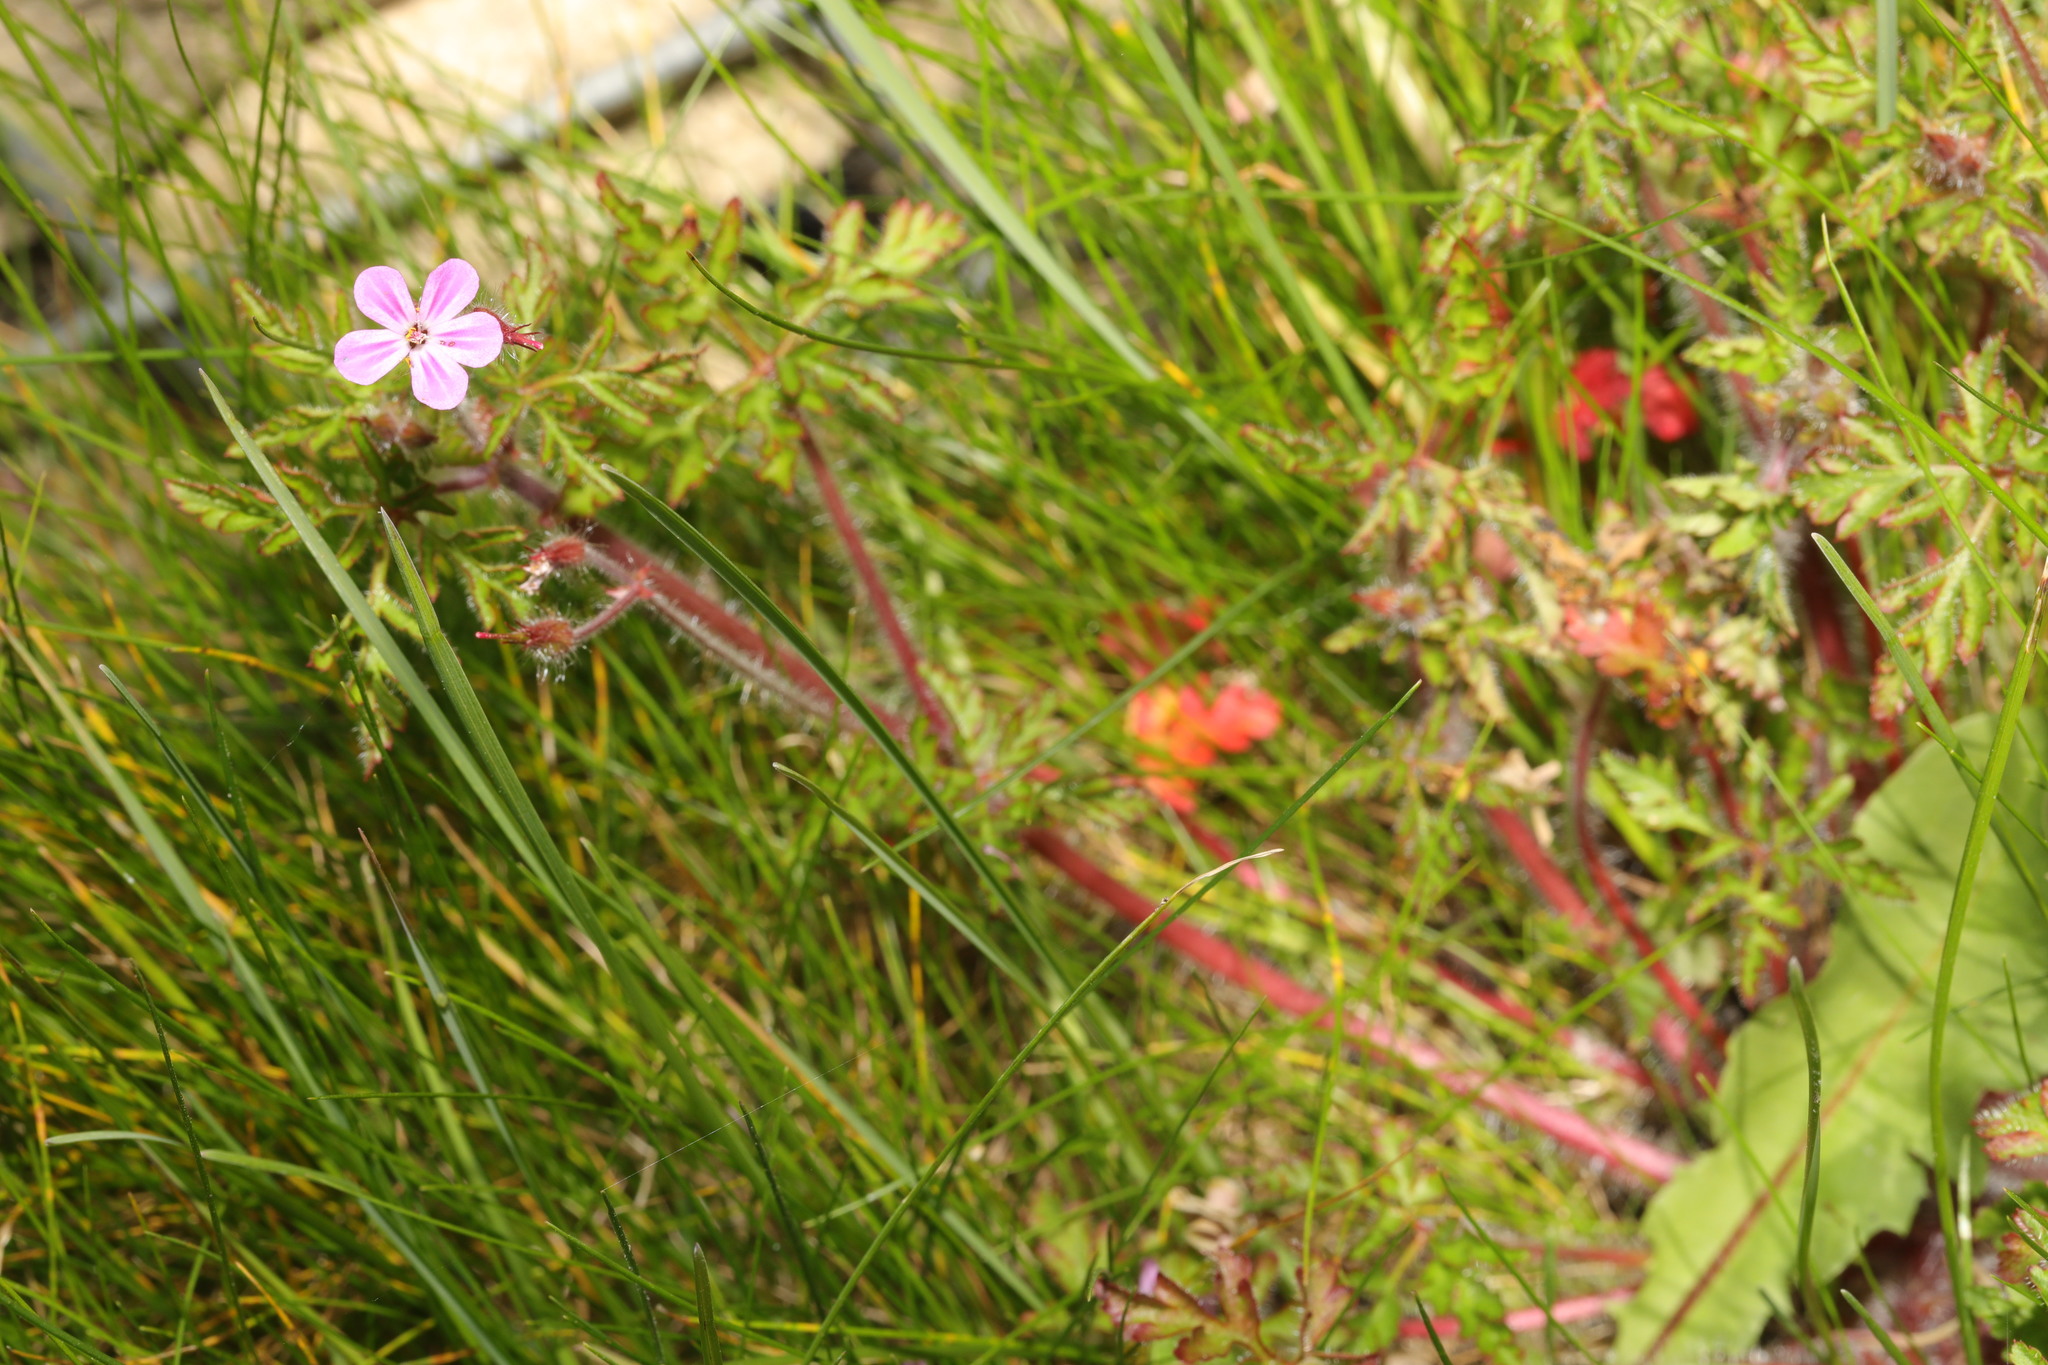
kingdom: Plantae
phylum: Tracheophyta
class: Magnoliopsida
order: Geraniales
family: Geraniaceae
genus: Geranium
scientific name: Geranium robertianum
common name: Herb-robert
